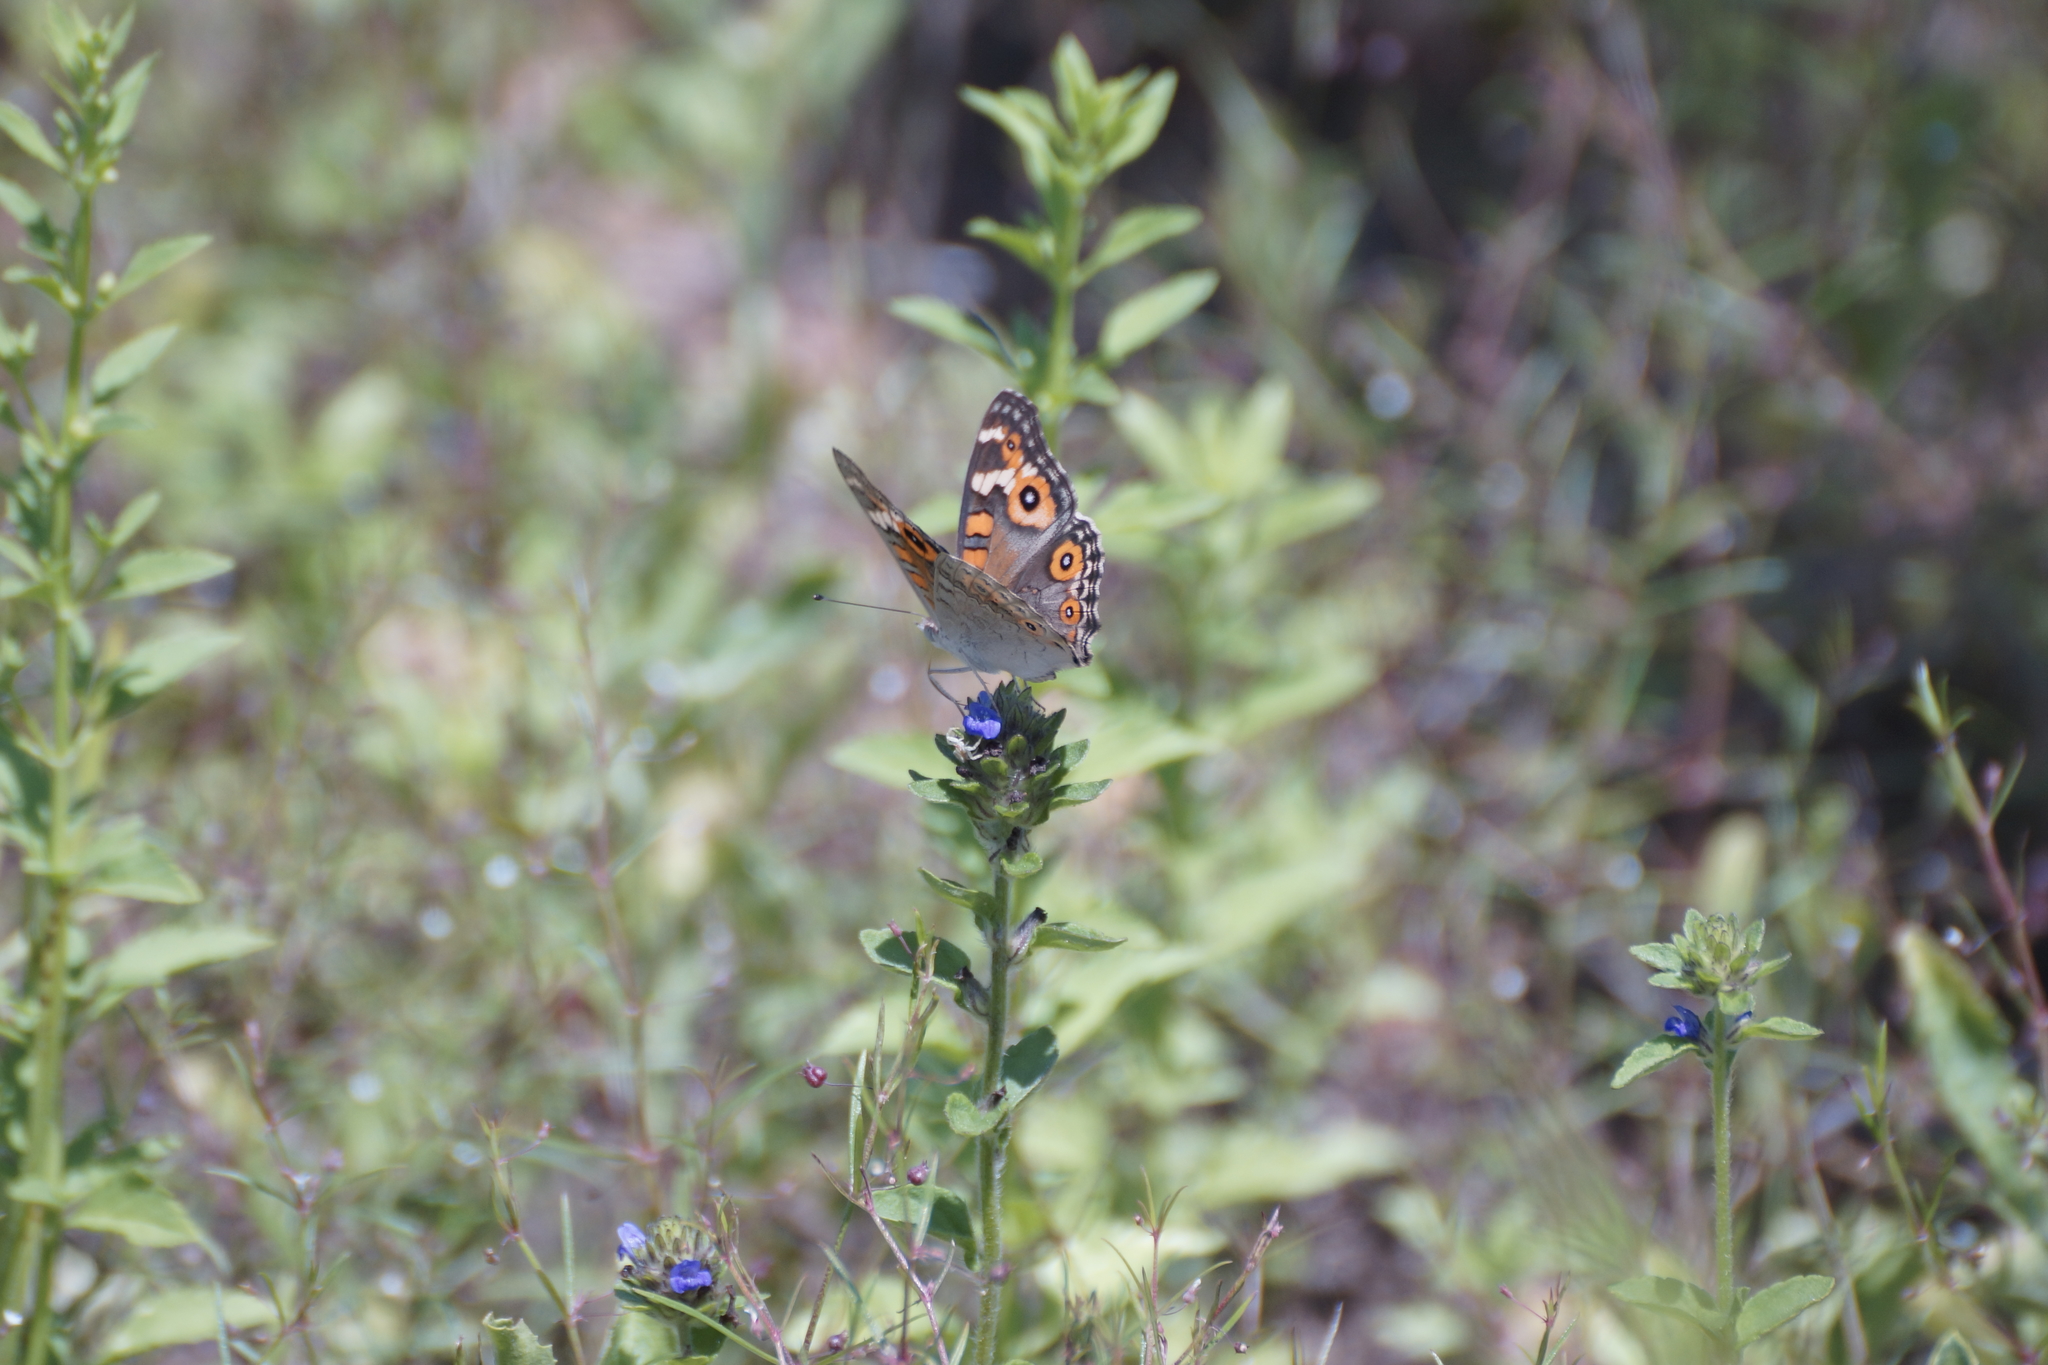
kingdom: Animalia
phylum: Arthropoda
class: Insecta
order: Lepidoptera
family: Nymphalidae
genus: Junonia
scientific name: Junonia villida
